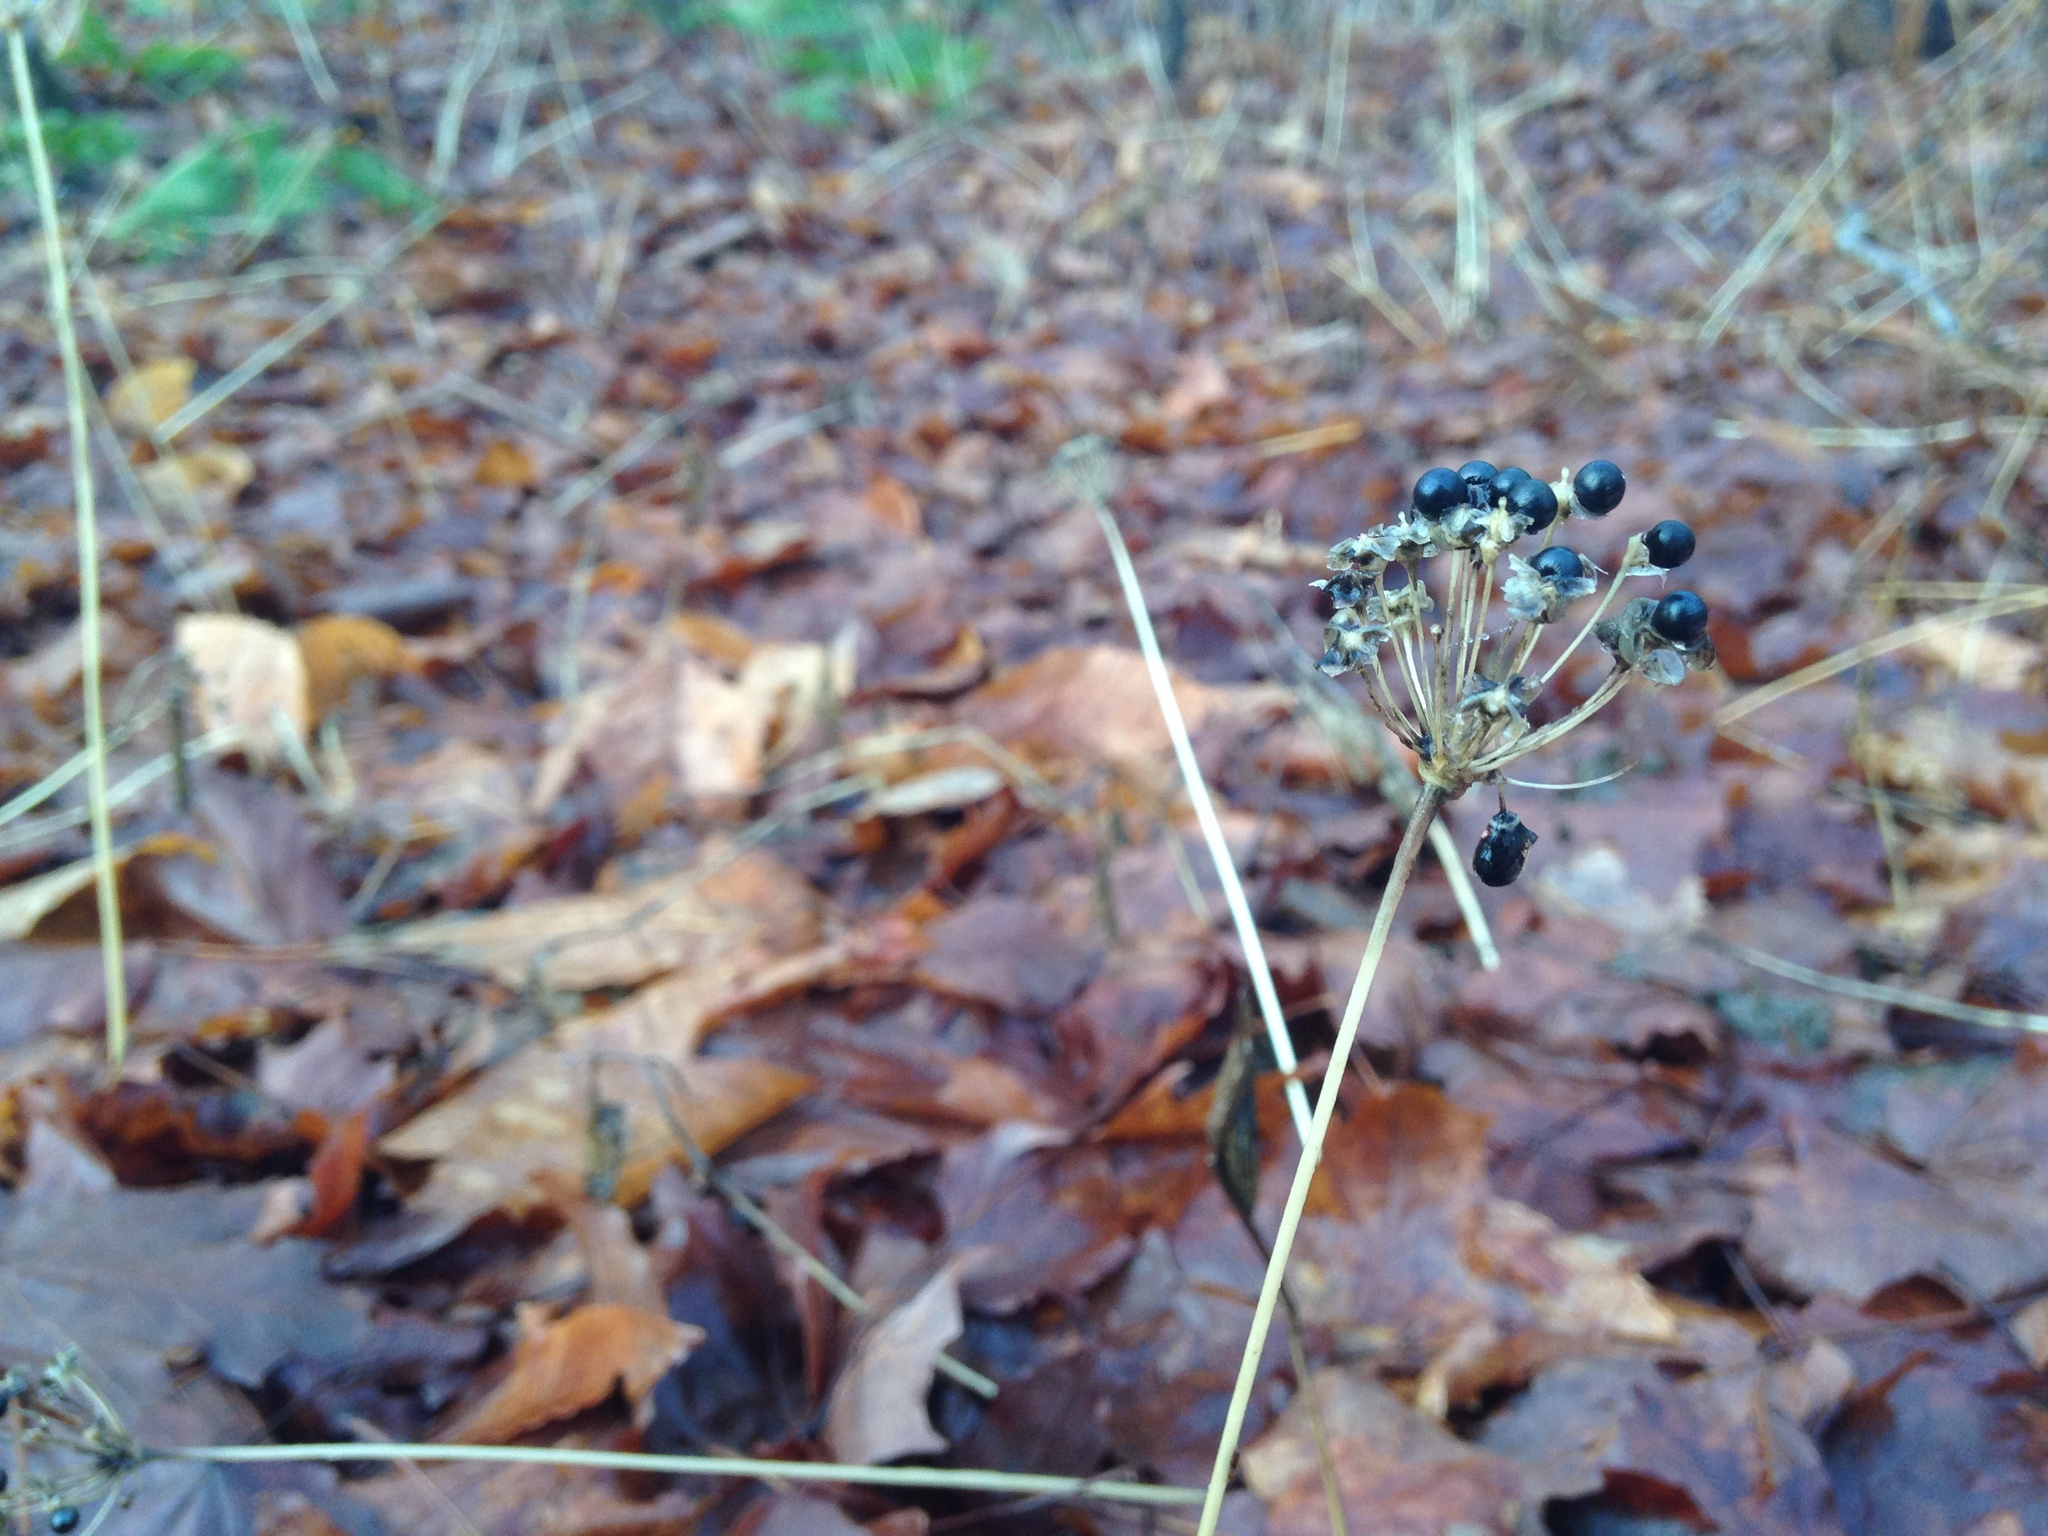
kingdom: Plantae
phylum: Tracheophyta
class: Liliopsida
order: Asparagales
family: Amaryllidaceae
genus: Allium
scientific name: Allium tricoccum
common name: Ramp
